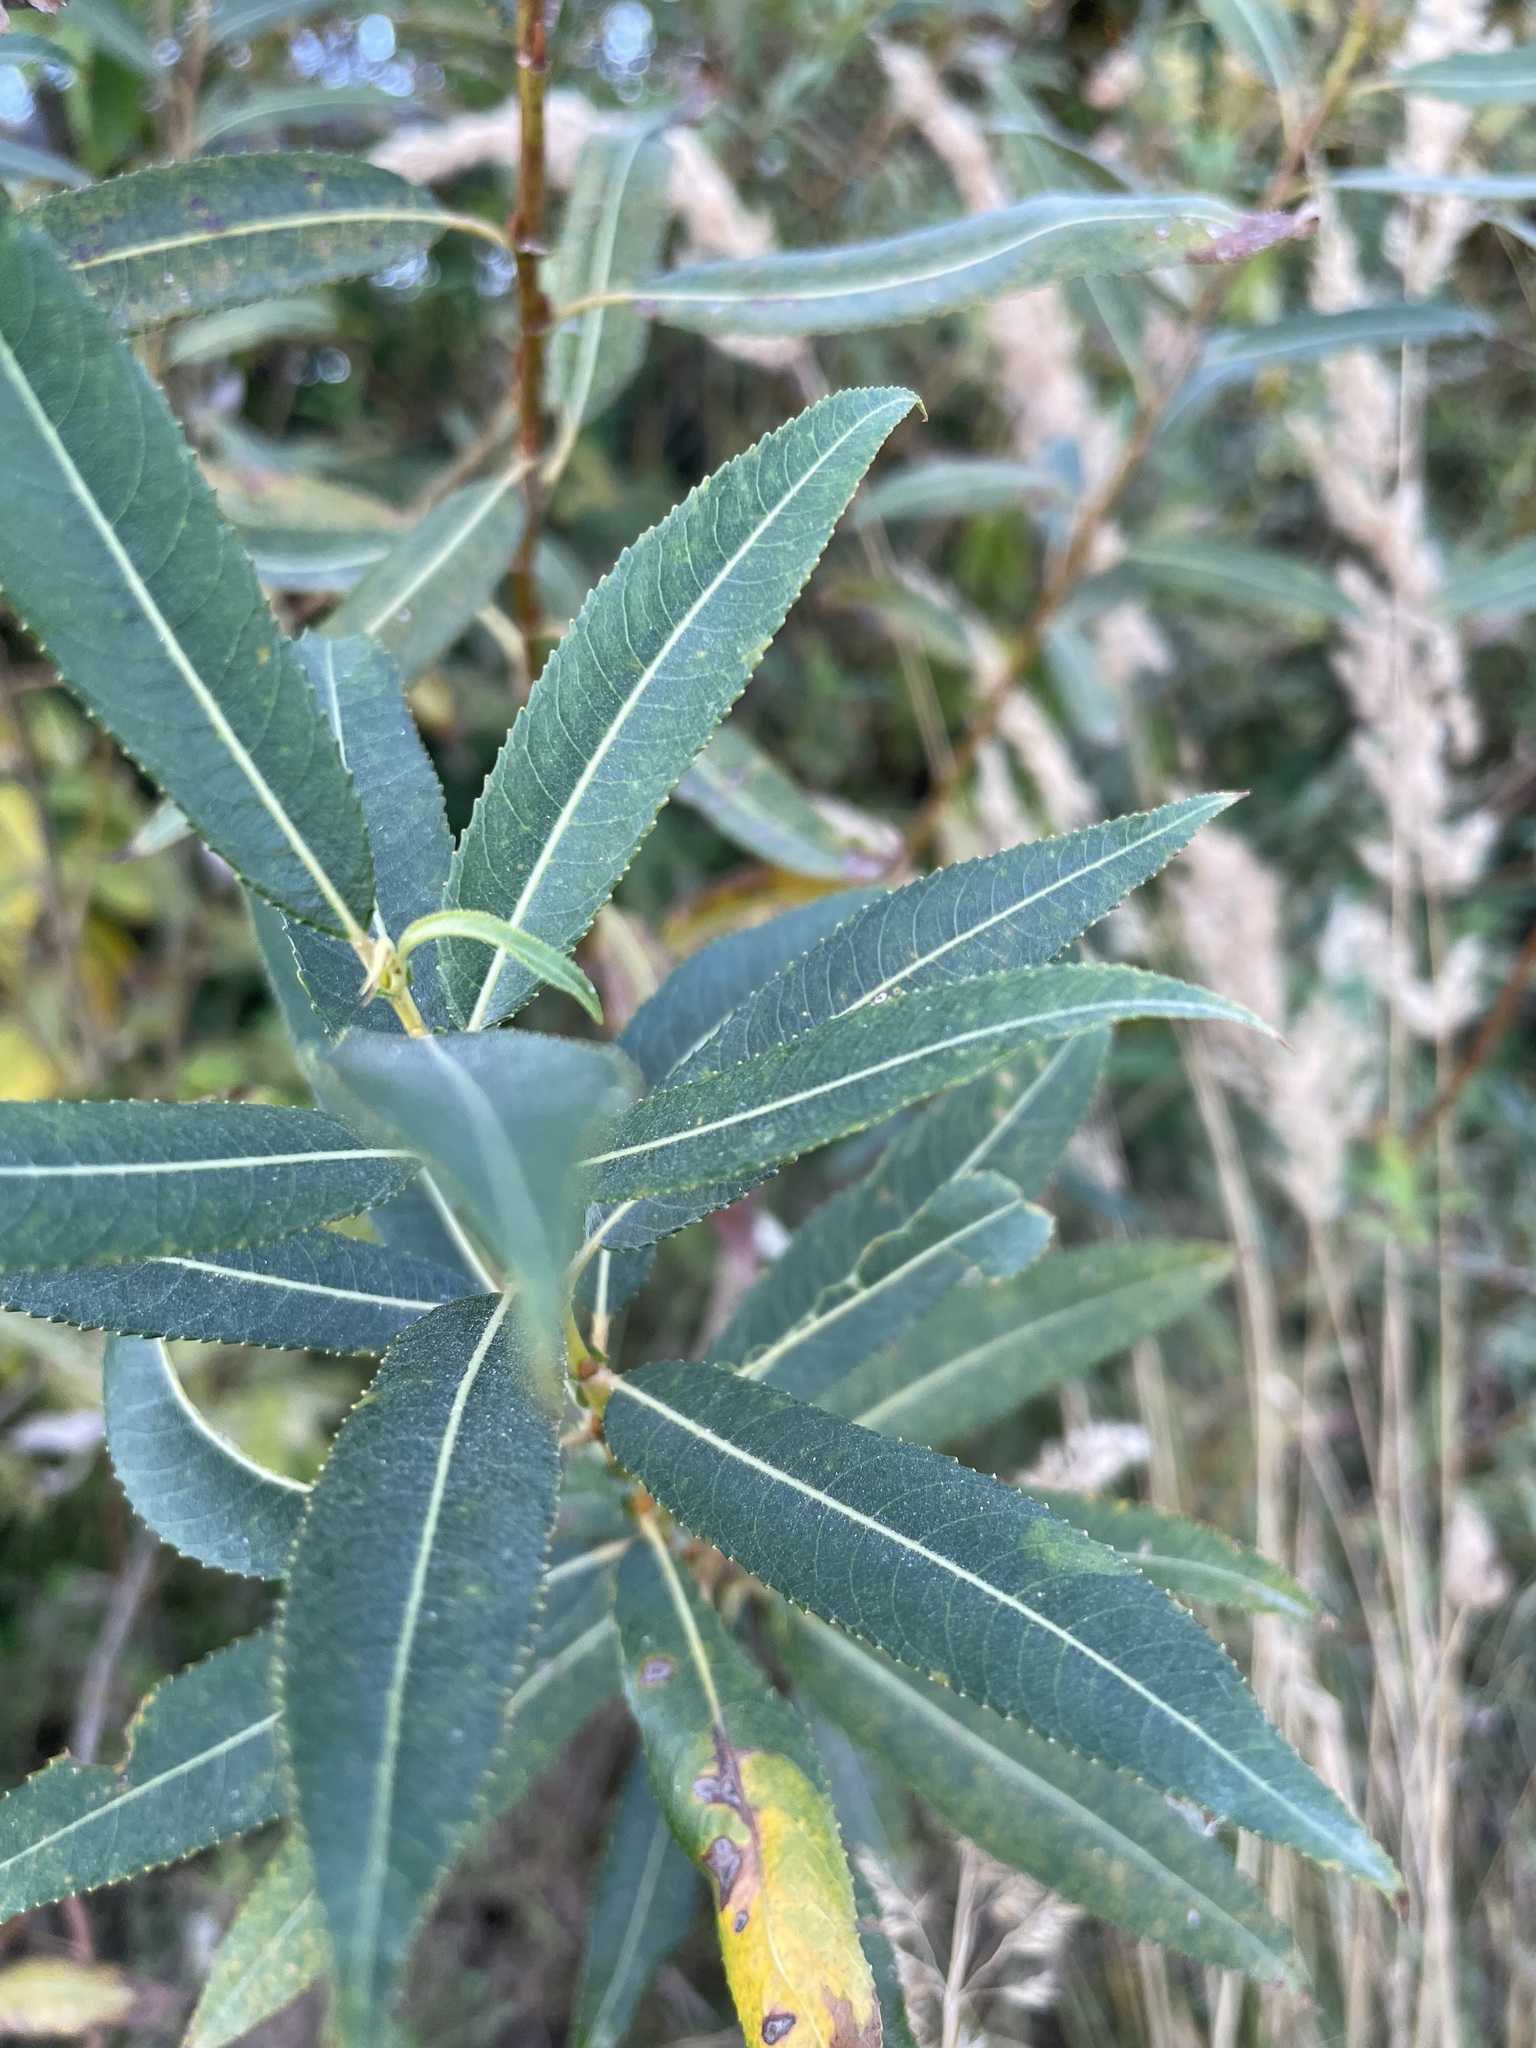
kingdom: Plantae
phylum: Tracheophyta
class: Magnoliopsida
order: Malpighiales
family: Salicaceae
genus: Salix
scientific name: Salix triandra
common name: Almond willow
